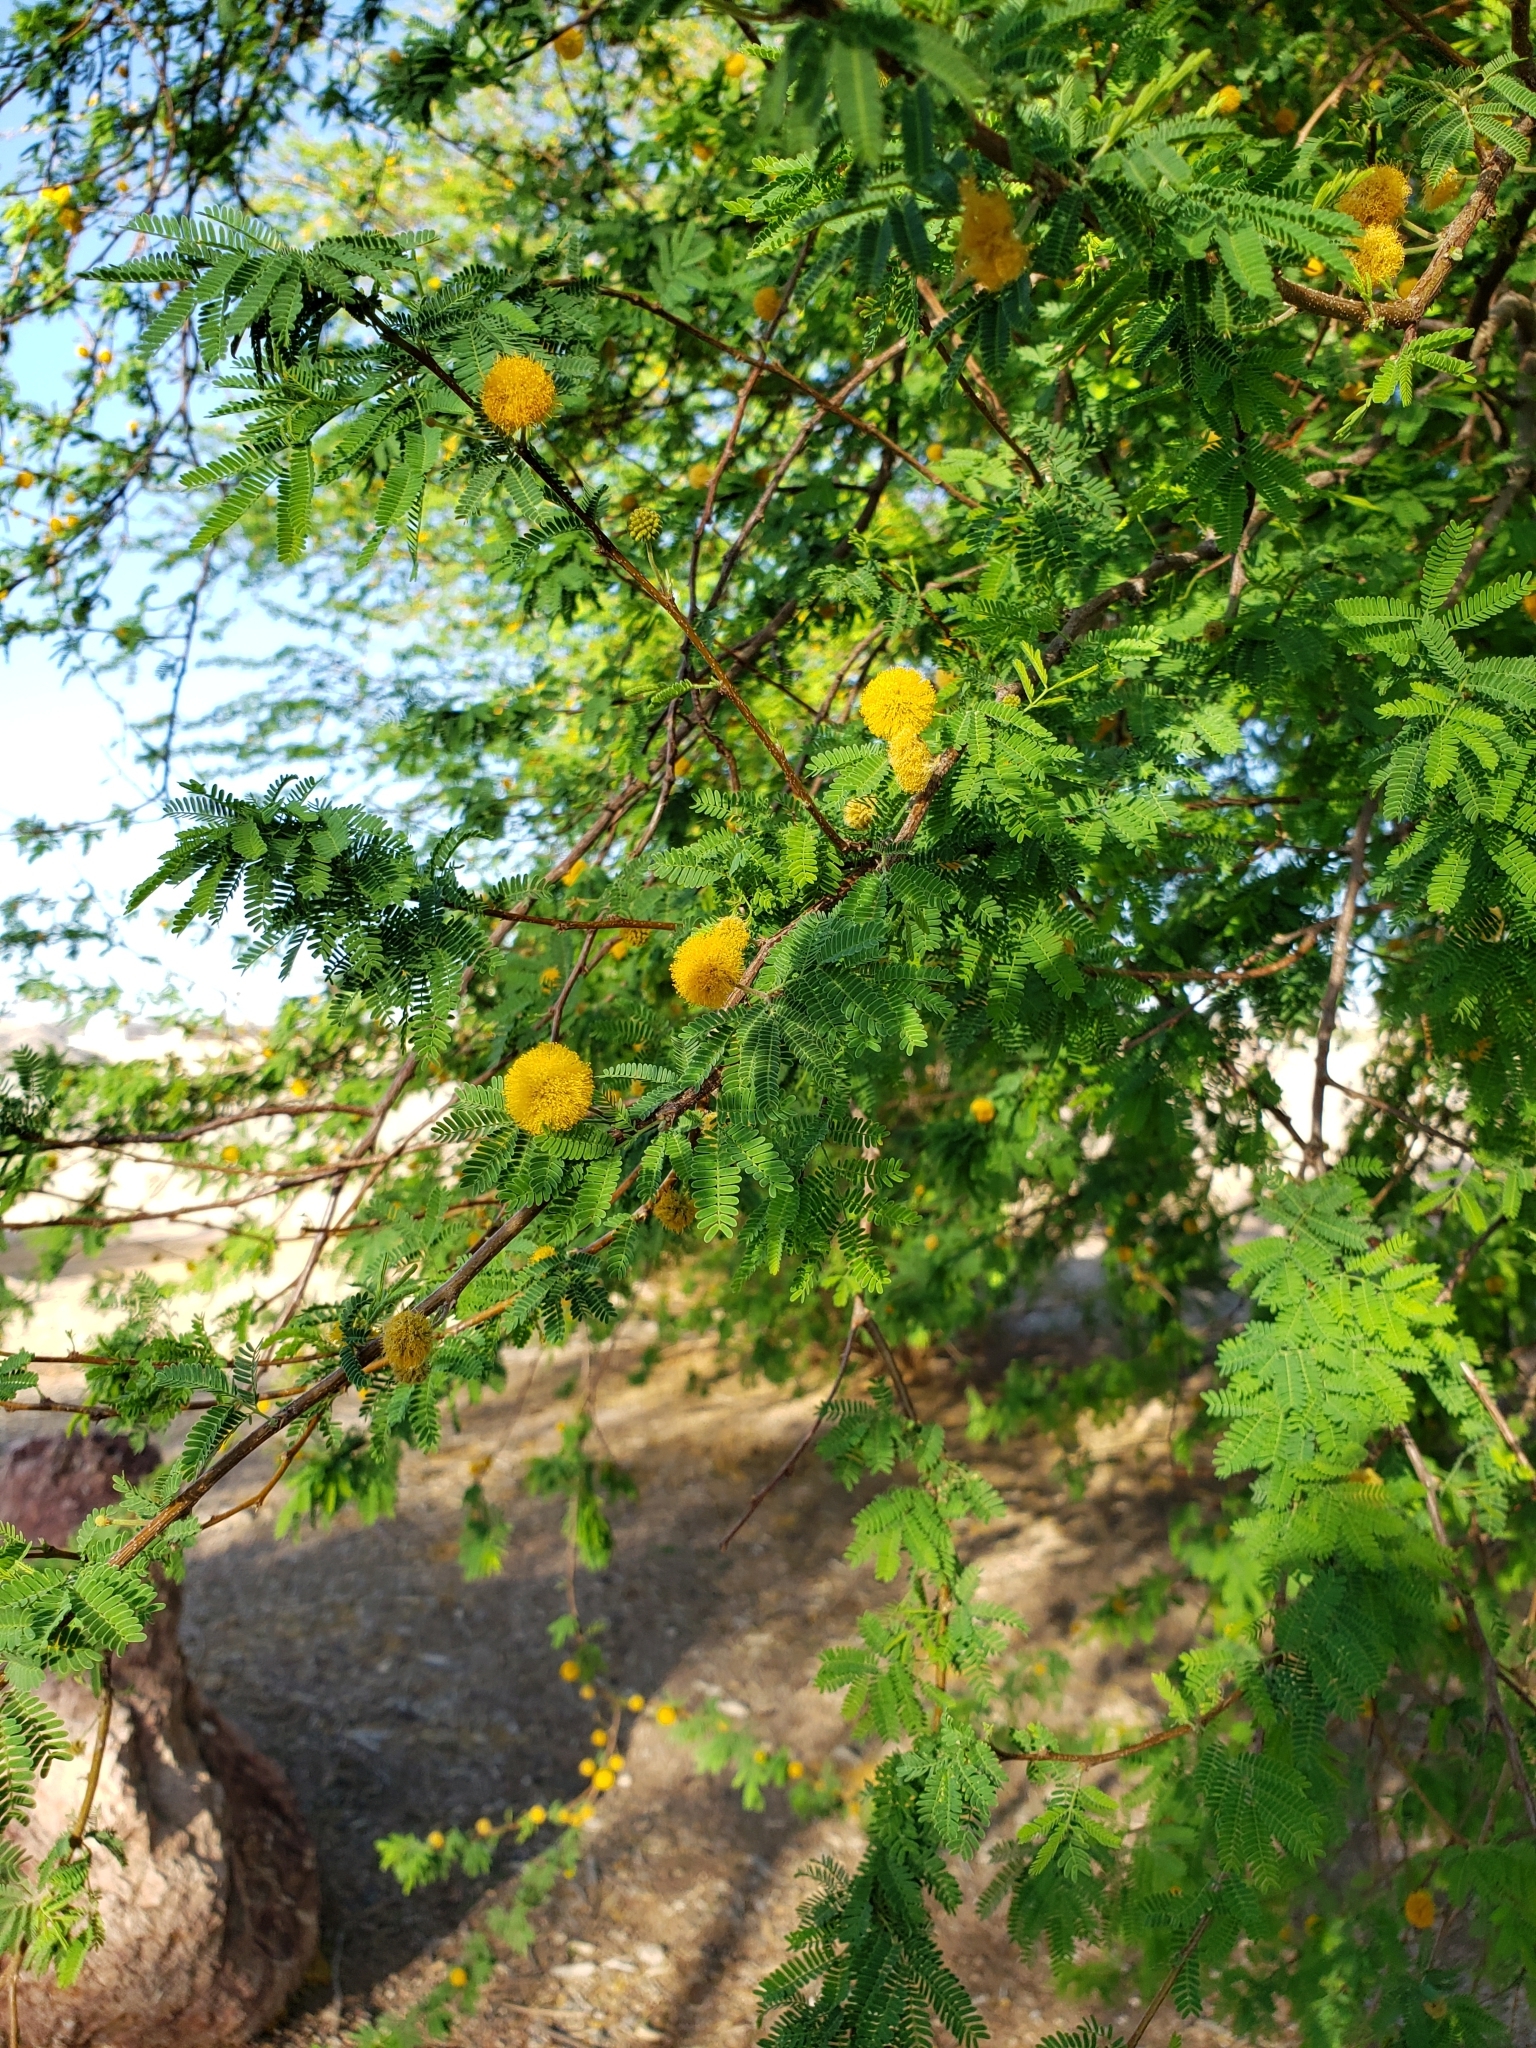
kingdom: Plantae
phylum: Tracheophyta
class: Magnoliopsida
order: Fabales
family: Fabaceae
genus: Vachellia
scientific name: Vachellia farnesiana
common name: Sweet acacia
